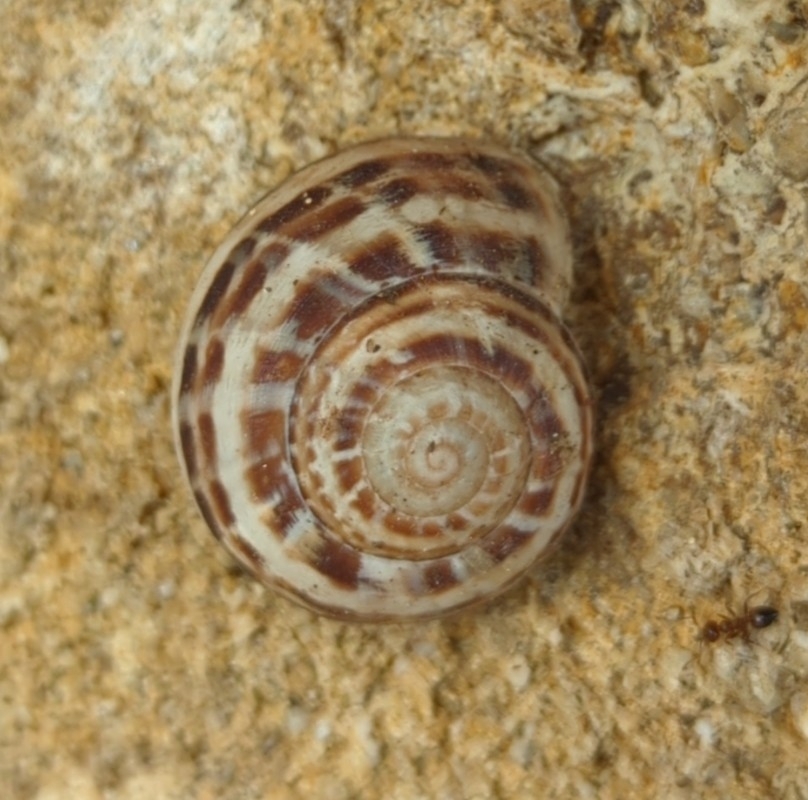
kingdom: Animalia
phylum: Mollusca
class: Gastropoda
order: Stylommatophora
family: Helicidae
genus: Eobania
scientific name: Eobania vermiculata
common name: Chocolateband snail
